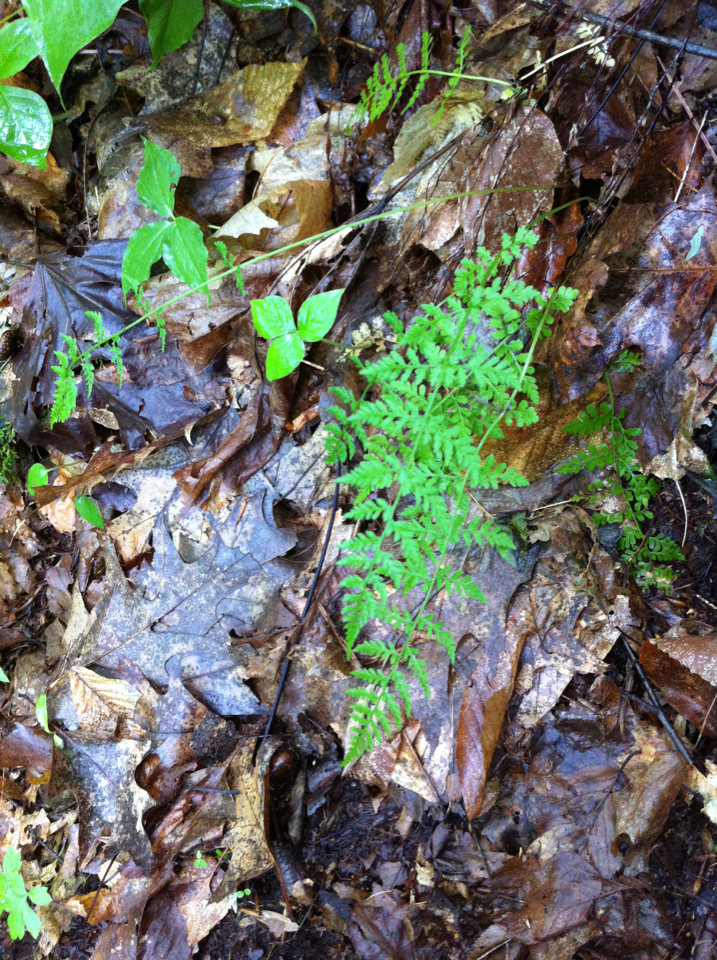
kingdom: Plantae
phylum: Tracheophyta
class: Polypodiopsida
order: Polypodiales
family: Cystopteridaceae
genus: Cystopteris
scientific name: Cystopteris tenuis
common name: Mackay's brittle fern
